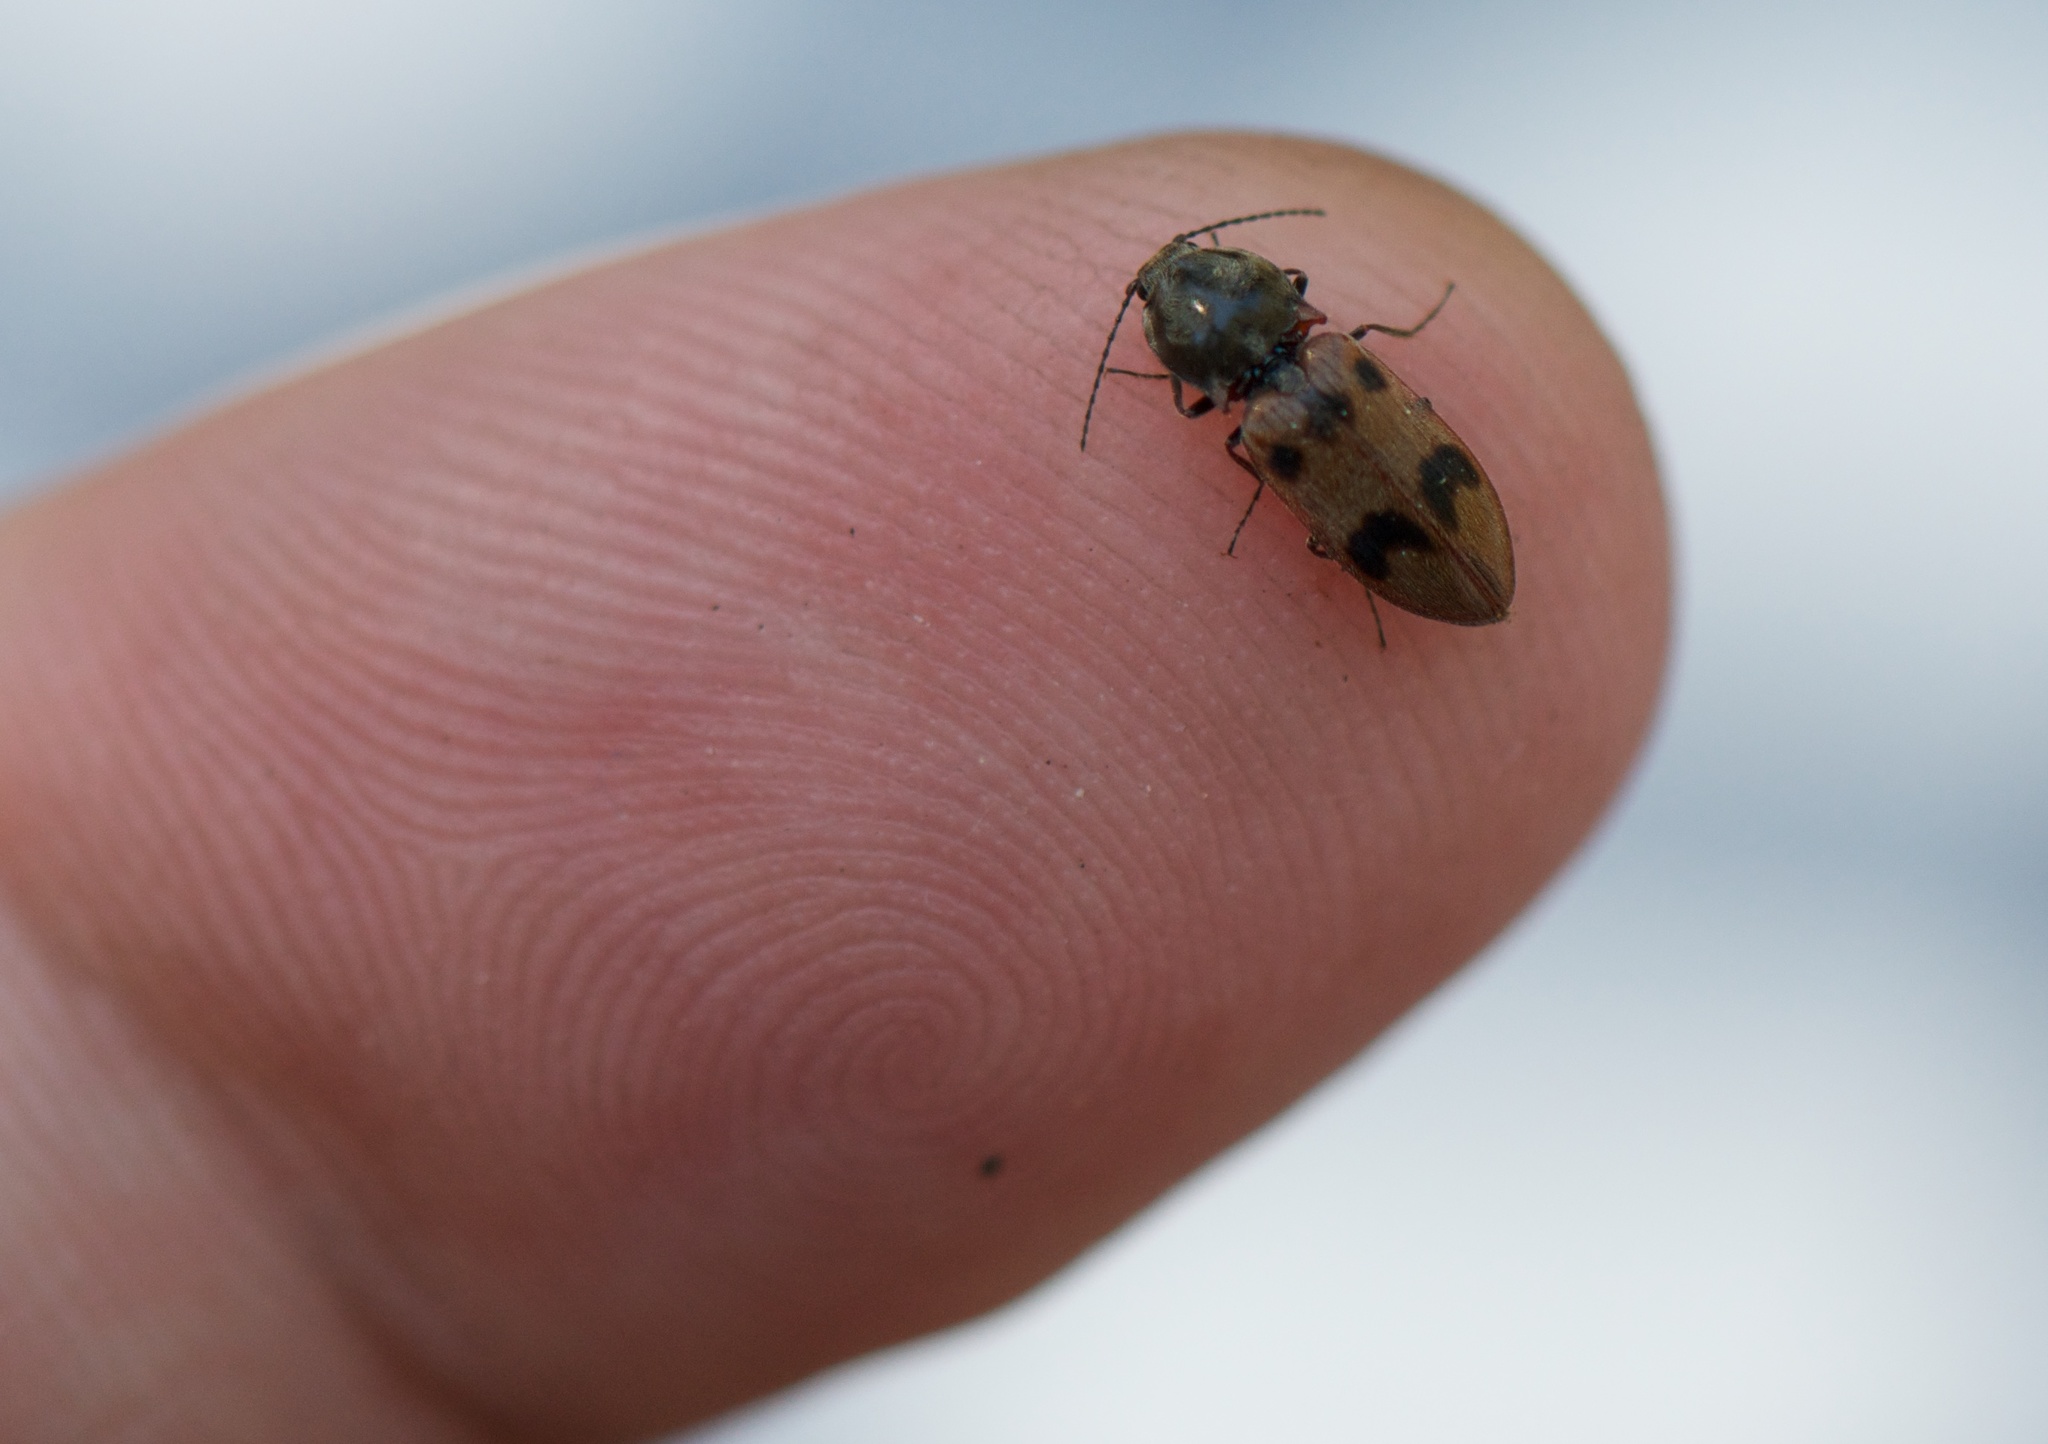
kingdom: Animalia
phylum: Arthropoda
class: Insecta
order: Coleoptera
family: Elateridae
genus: Stropenron
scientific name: Stropenron
